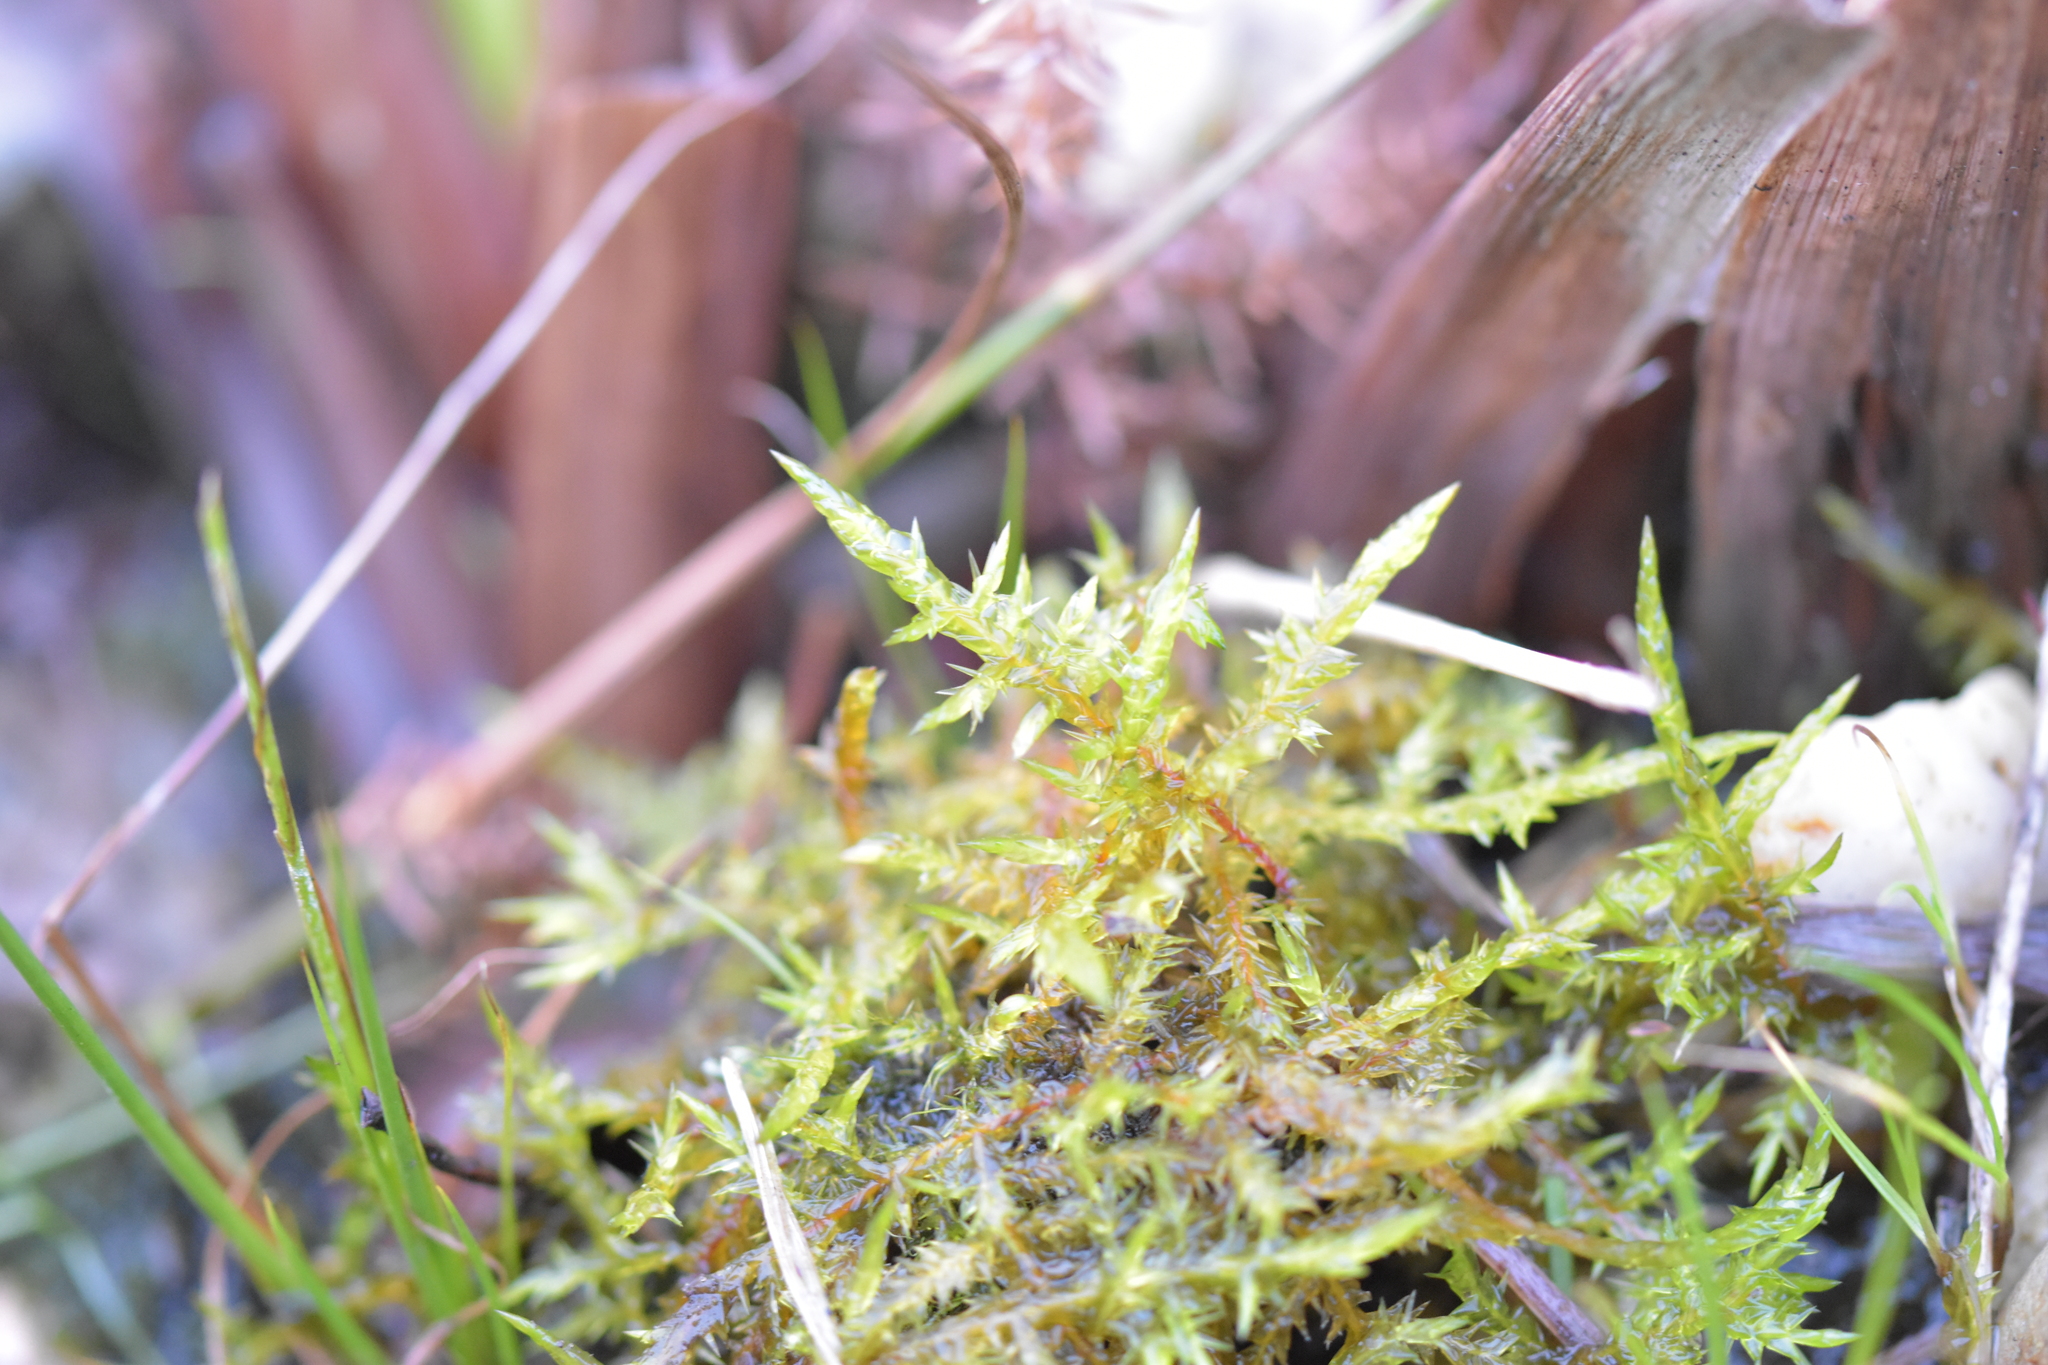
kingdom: Plantae
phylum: Bryophyta
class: Bryopsida
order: Hypnales
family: Pylaisiaceae
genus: Calliergonella
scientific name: Calliergonella cuspidata
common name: Common large wetland moss
